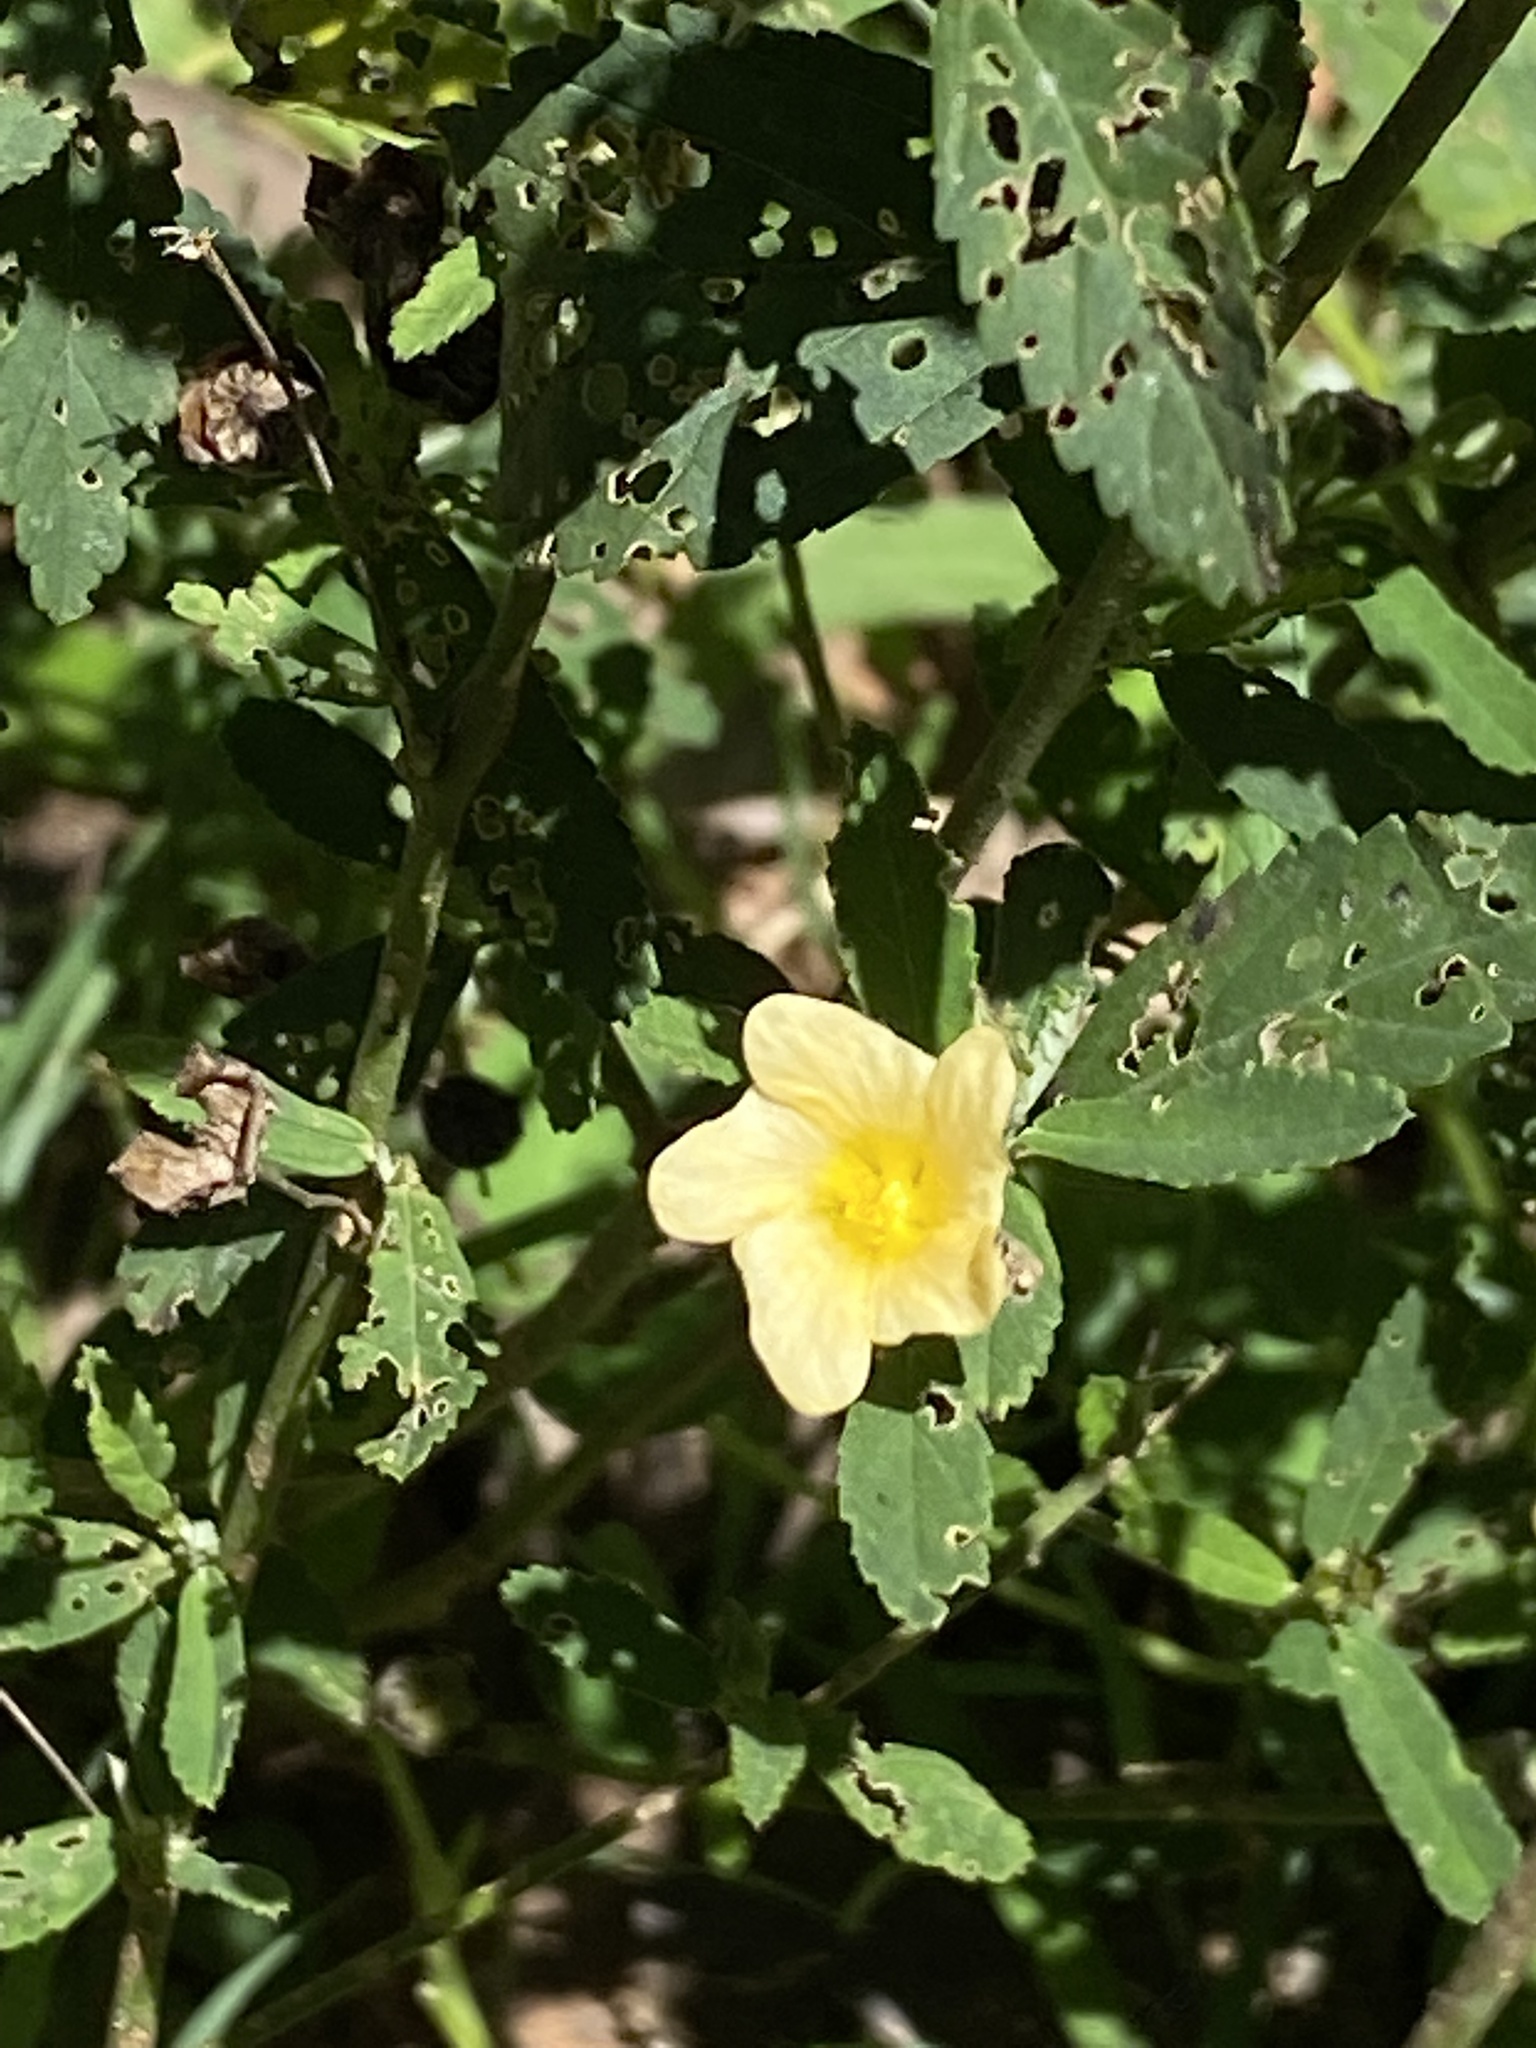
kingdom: Plantae
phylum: Tracheophyta
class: Magnoliopsida
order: Malvales
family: Malvaceae
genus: Sida
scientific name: Sida rhombifolia
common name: Queensland-hemp
